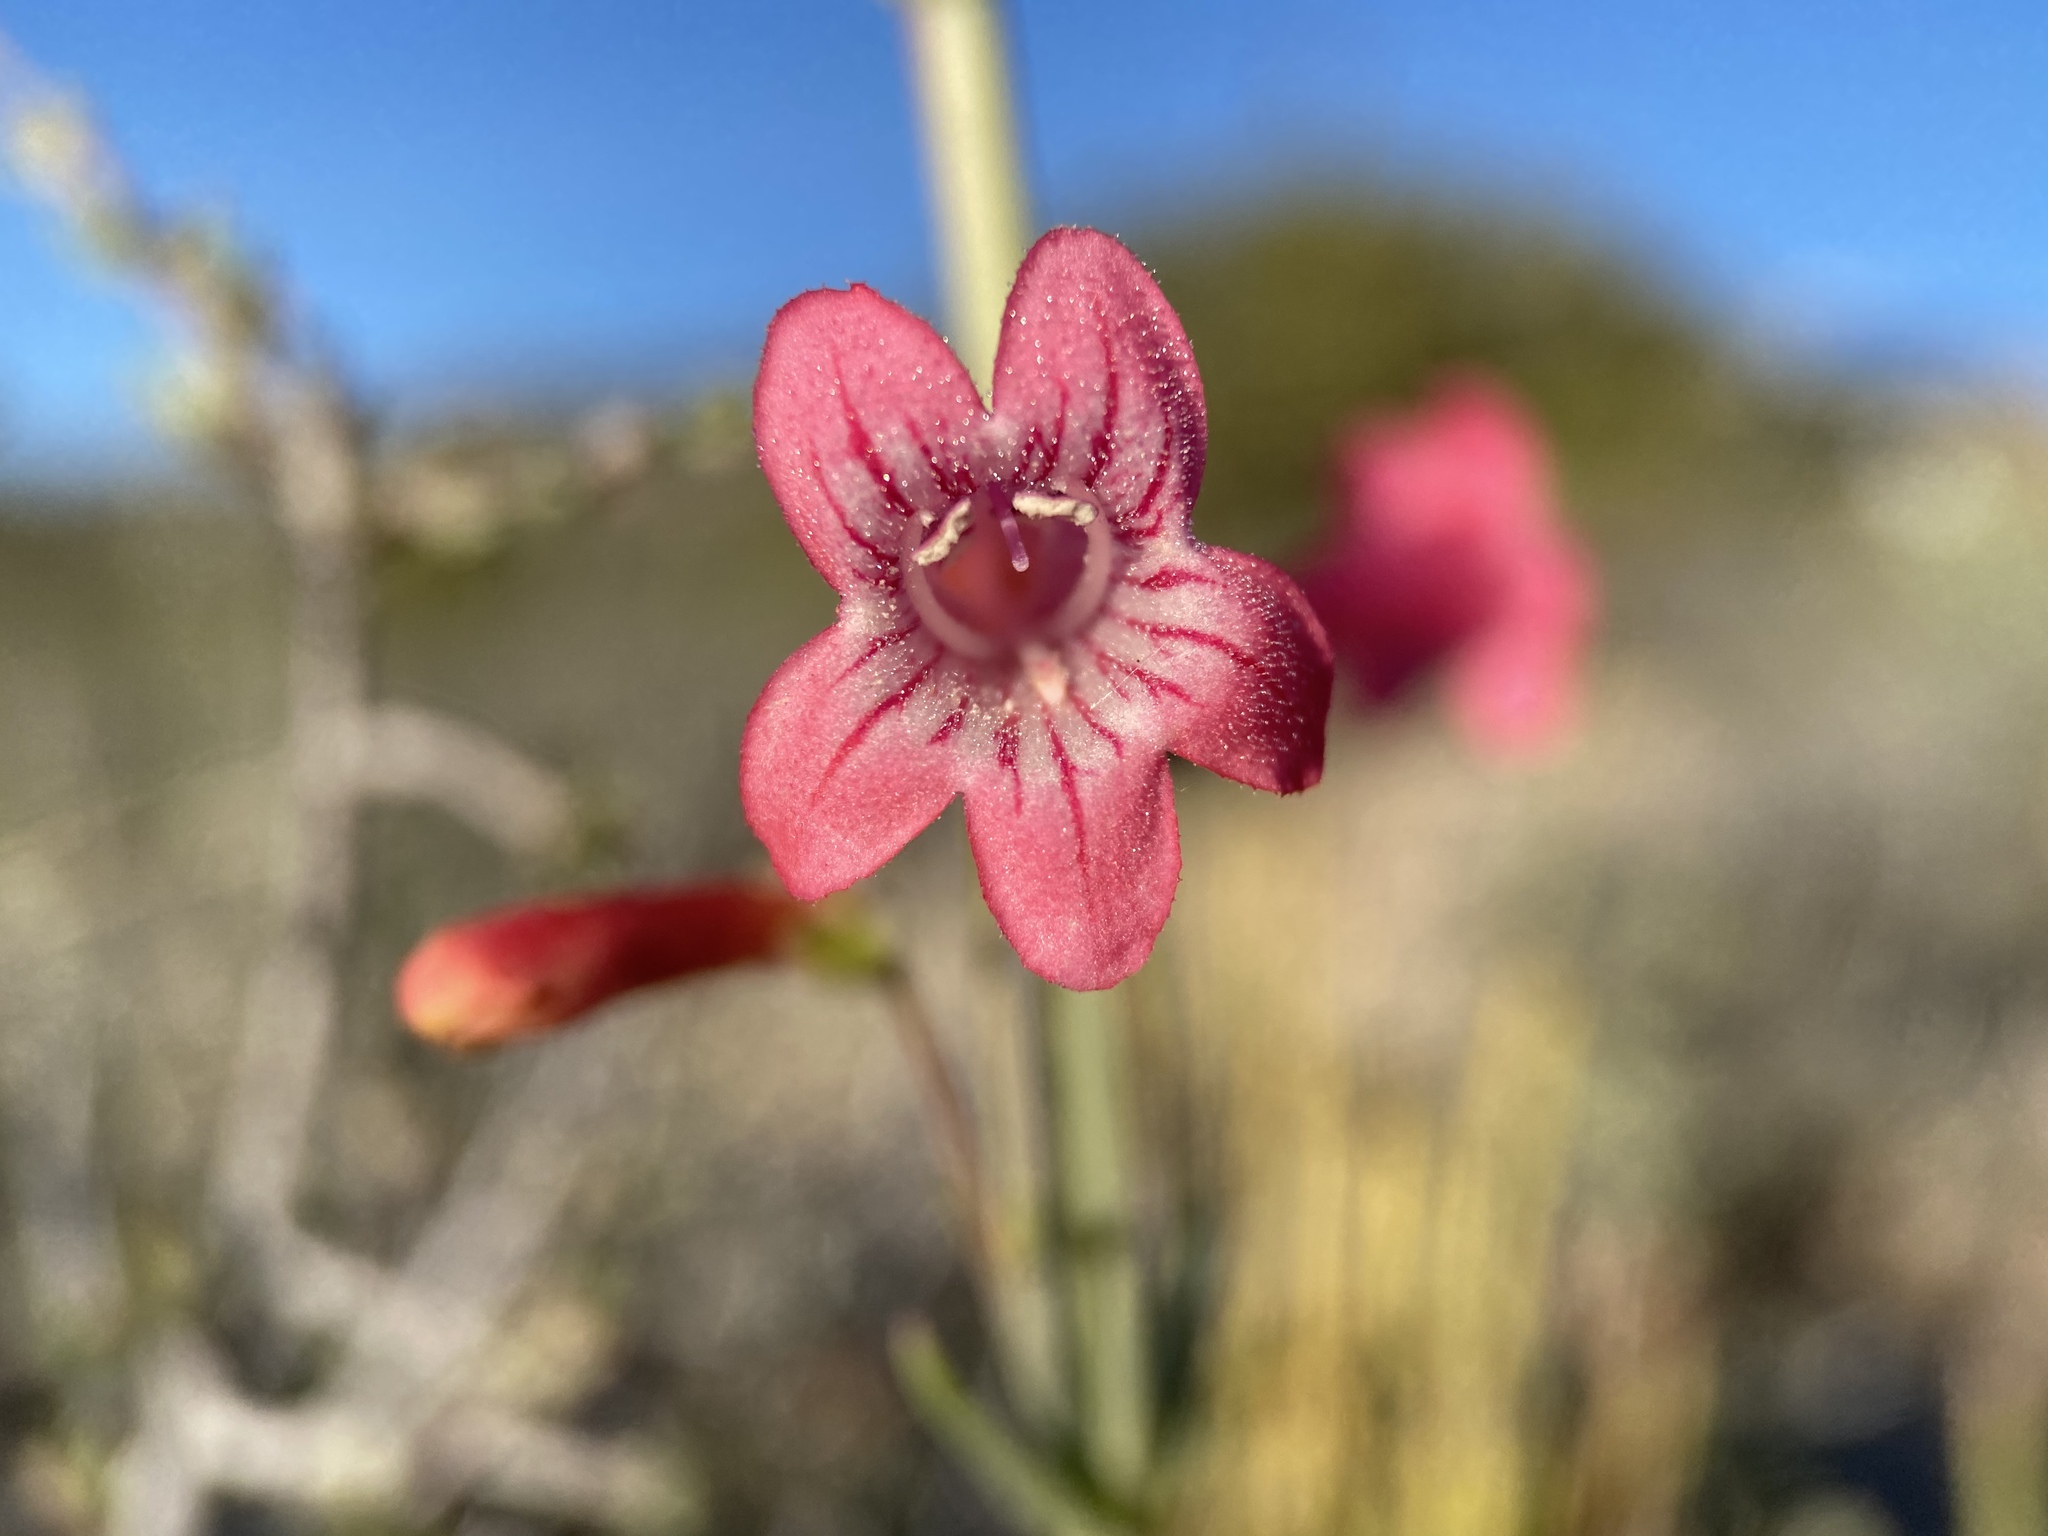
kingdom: Plantae
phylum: Tracheophyta
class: Magnoliopsida
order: Lamiales
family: Plantaginaceae
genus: Penstemon
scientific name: Penstemon utahensis
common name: Utah penstemon
